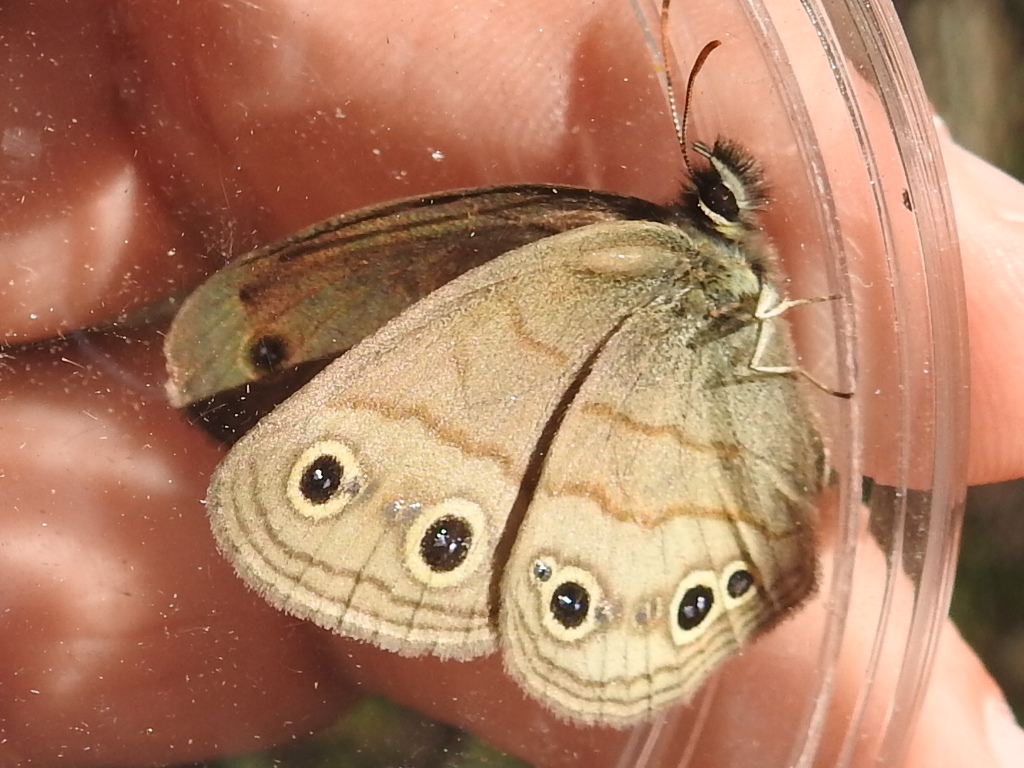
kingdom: Animalia
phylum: Arthropoda
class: Insecta
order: Lepidoptera
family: Nymphalidae
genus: Euptychia
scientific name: Euptychia cymela
